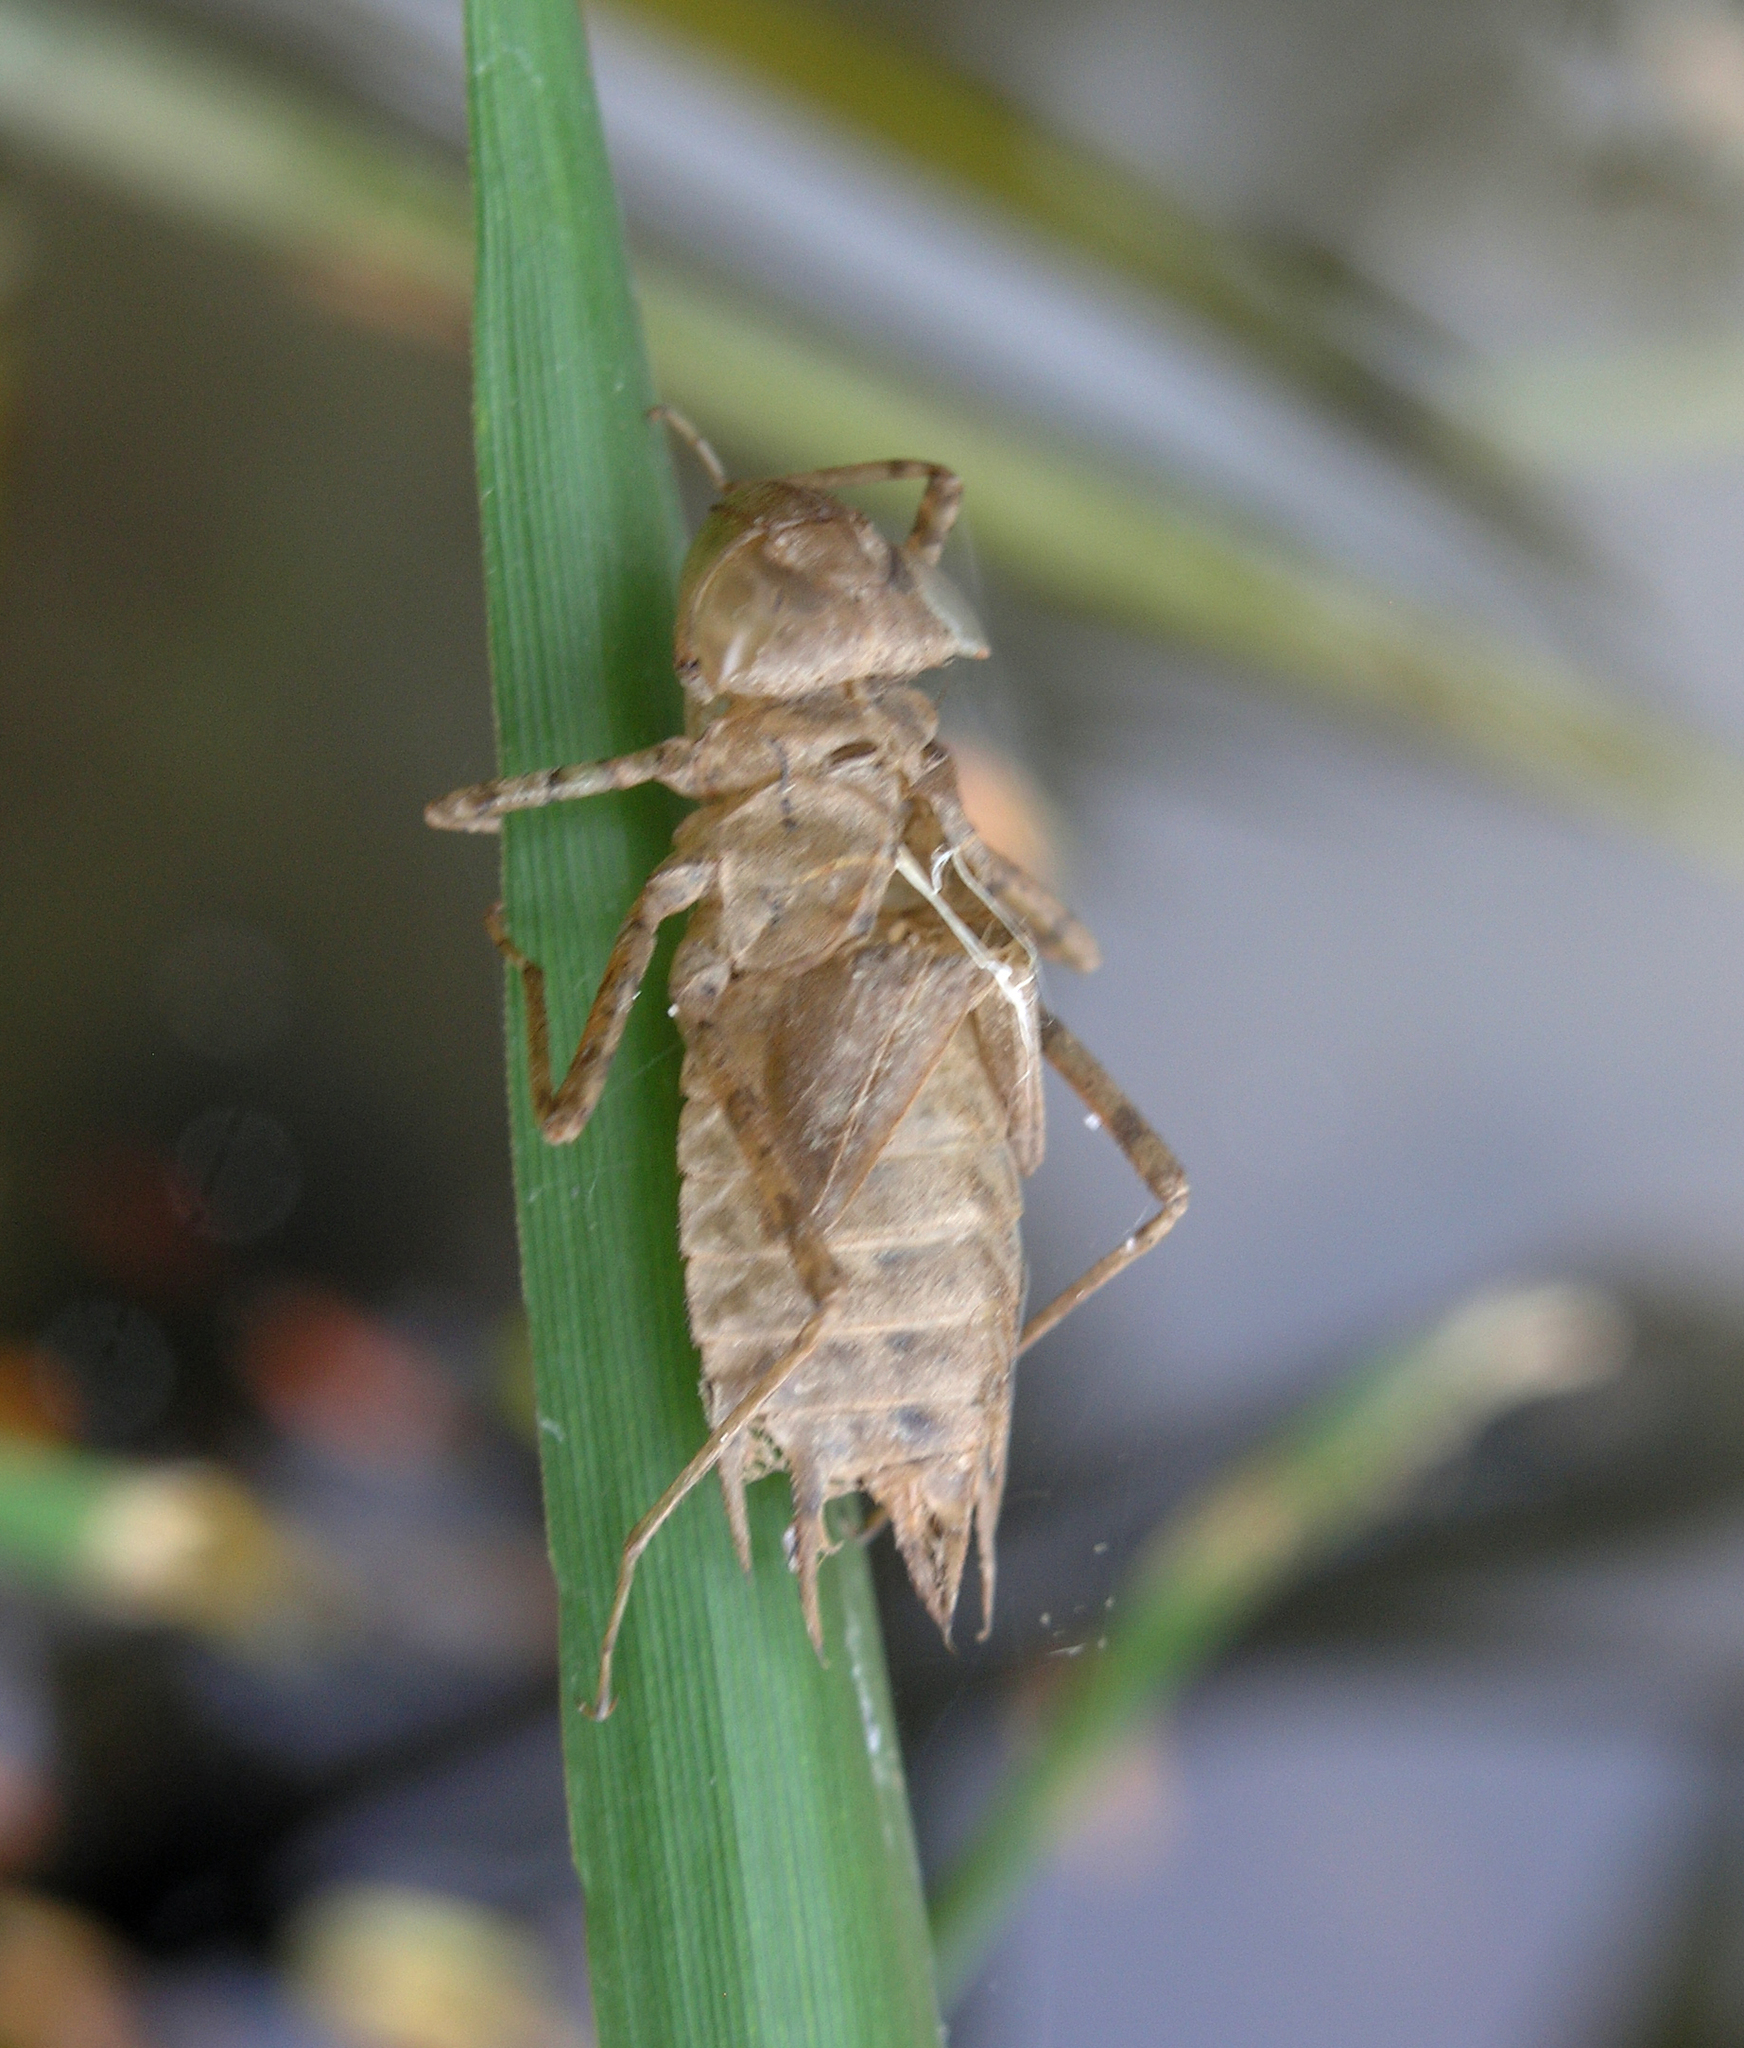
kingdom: Animalia
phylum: Arthropoda
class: Insecta
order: Odonata
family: Libellulidae
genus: Hydrobasileus
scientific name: Hydrobasileus croceus
